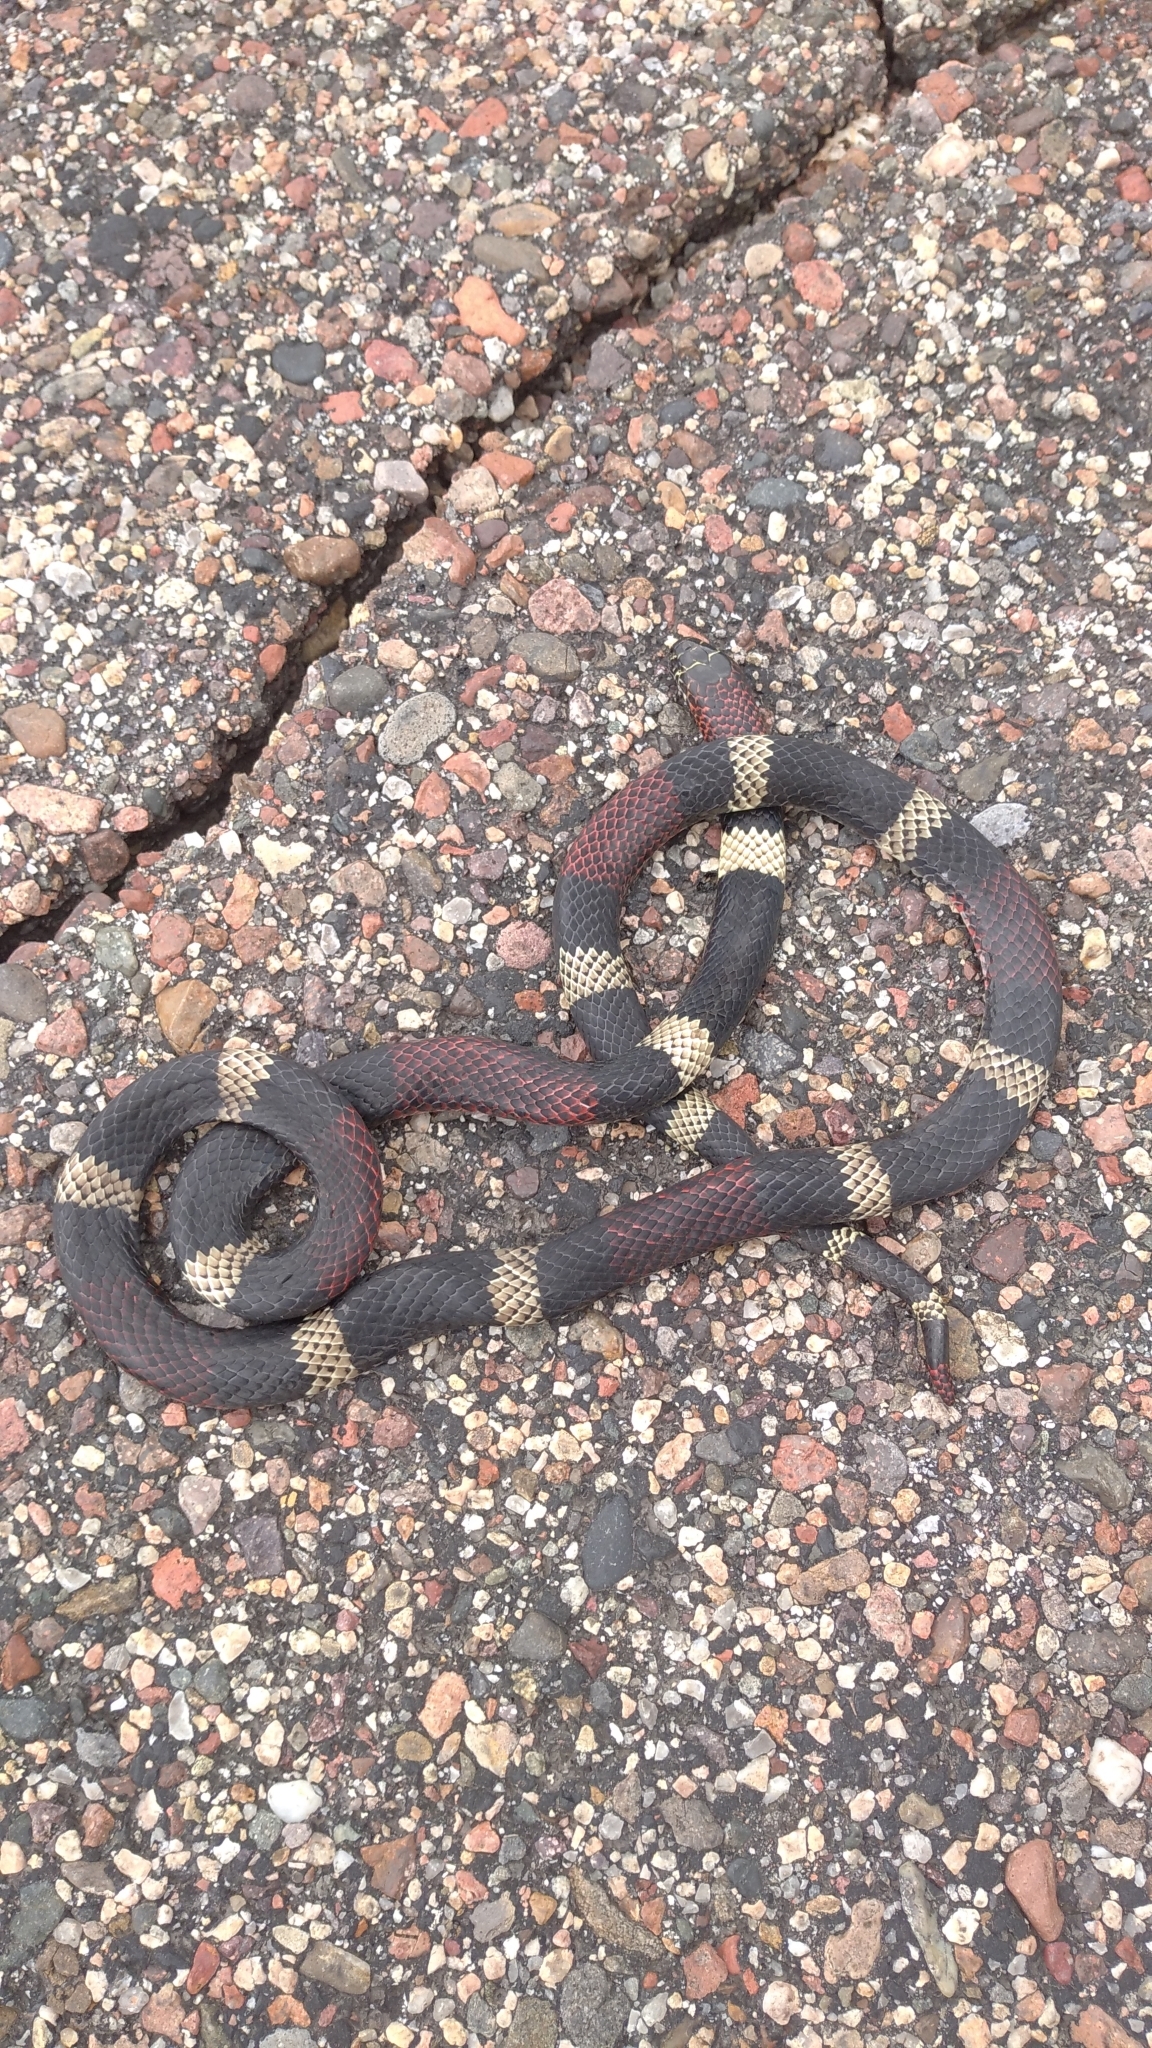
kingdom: Animalia
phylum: Chordata
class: Squamata
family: Elapidae
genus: Micrurus
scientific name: Micrurus pyrrhocryptus
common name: Argentinian coral snake
